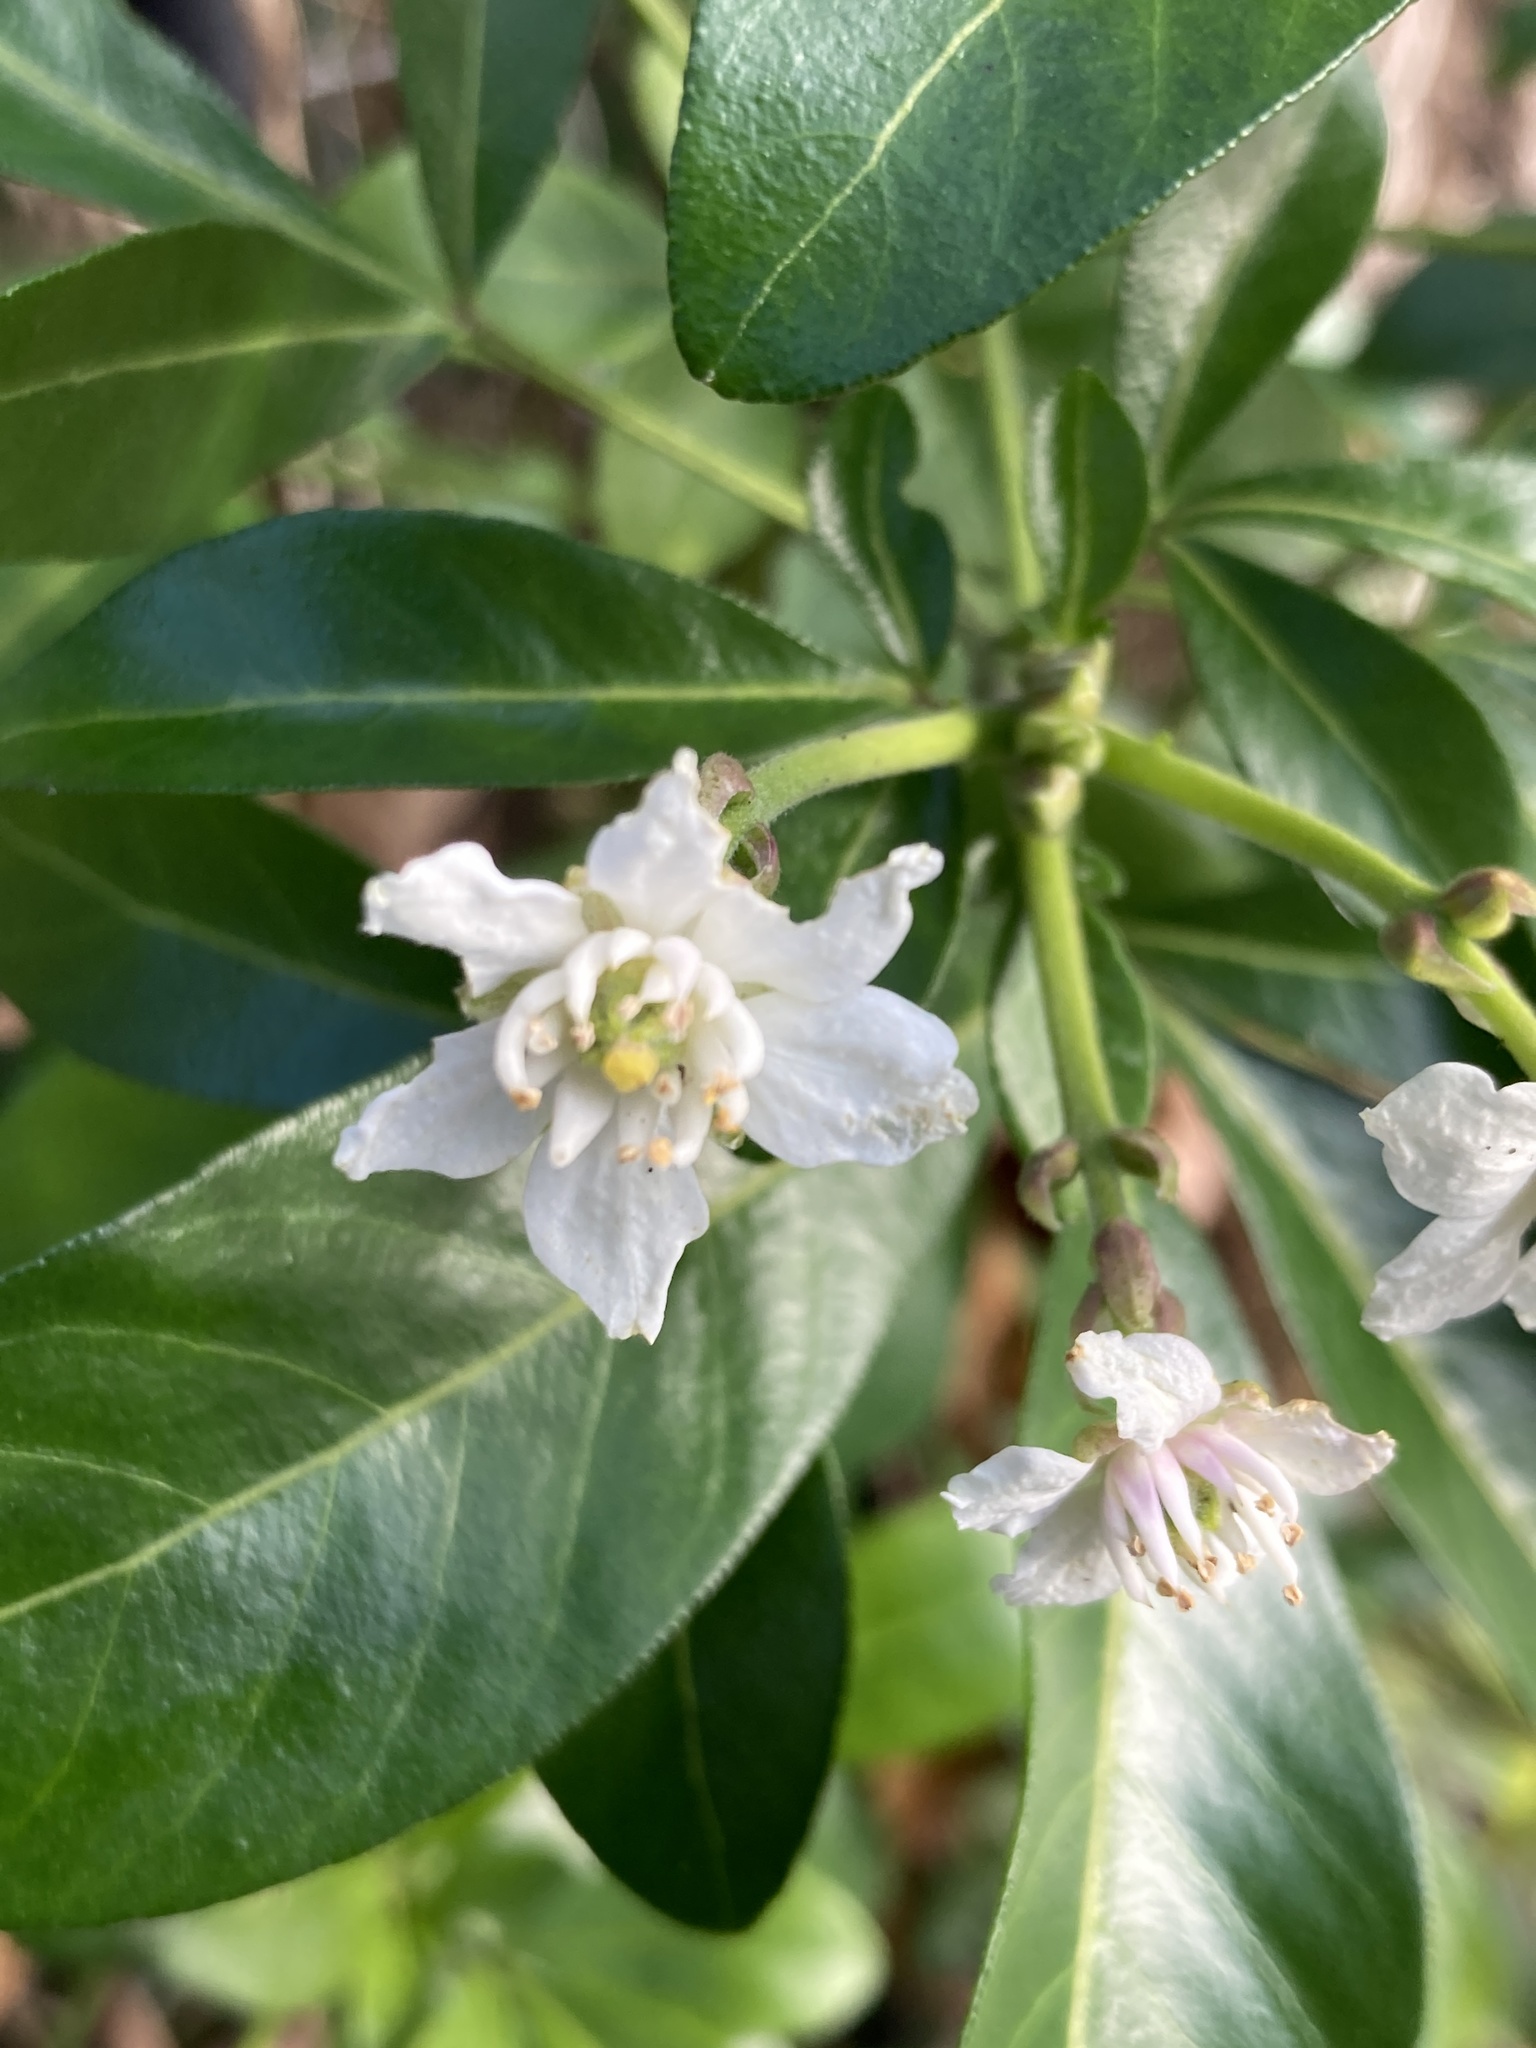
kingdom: Plantae
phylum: Tracheophyta
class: Magnoliopsida
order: Sapindales
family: Rutaceae
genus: Choisya
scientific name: Choisya ternata
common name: Mexican orange
